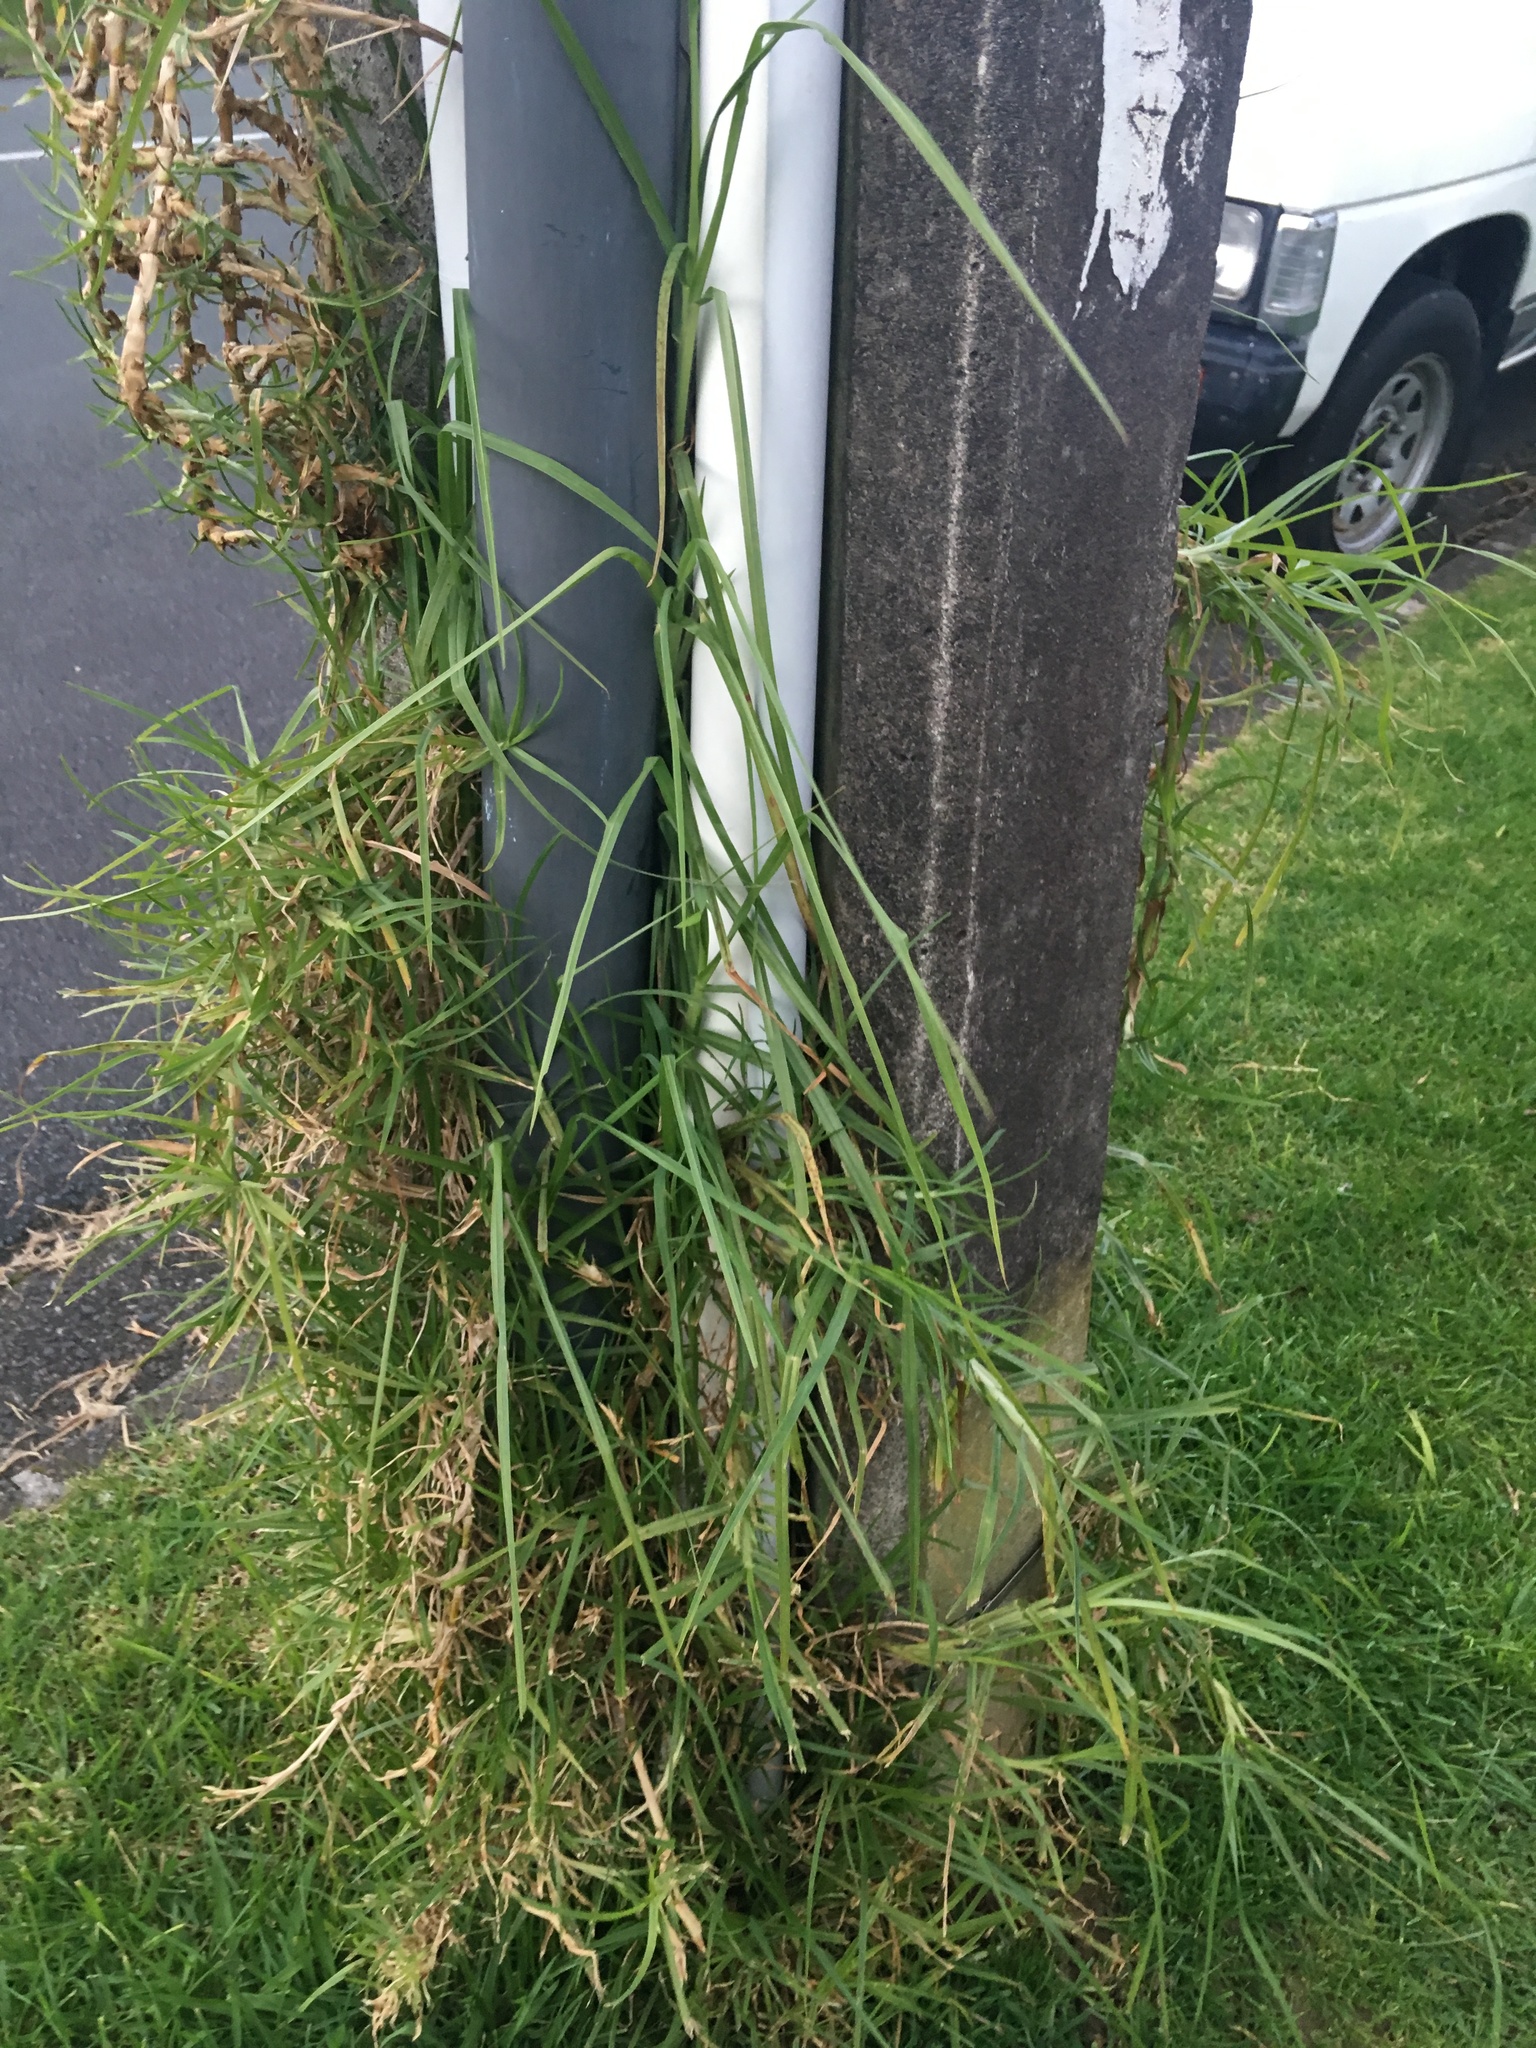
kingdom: Plantae
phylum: Tracheophyta
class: Liliopsida
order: Poales
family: Poaceae
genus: Cenchrus
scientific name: Cenchrus clandestinus
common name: Kikuyugrass
